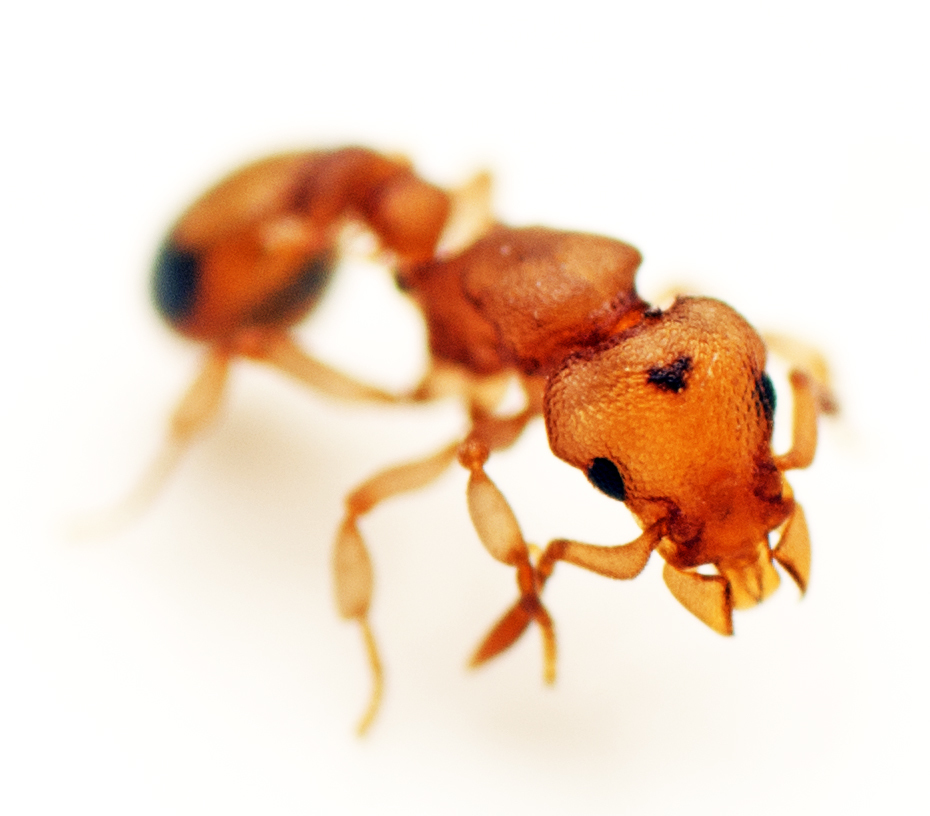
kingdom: Animalia
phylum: Arthropoda
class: Insecta
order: Hymenoptera
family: Formicidae
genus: Colobostruma
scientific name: Colobostruma
